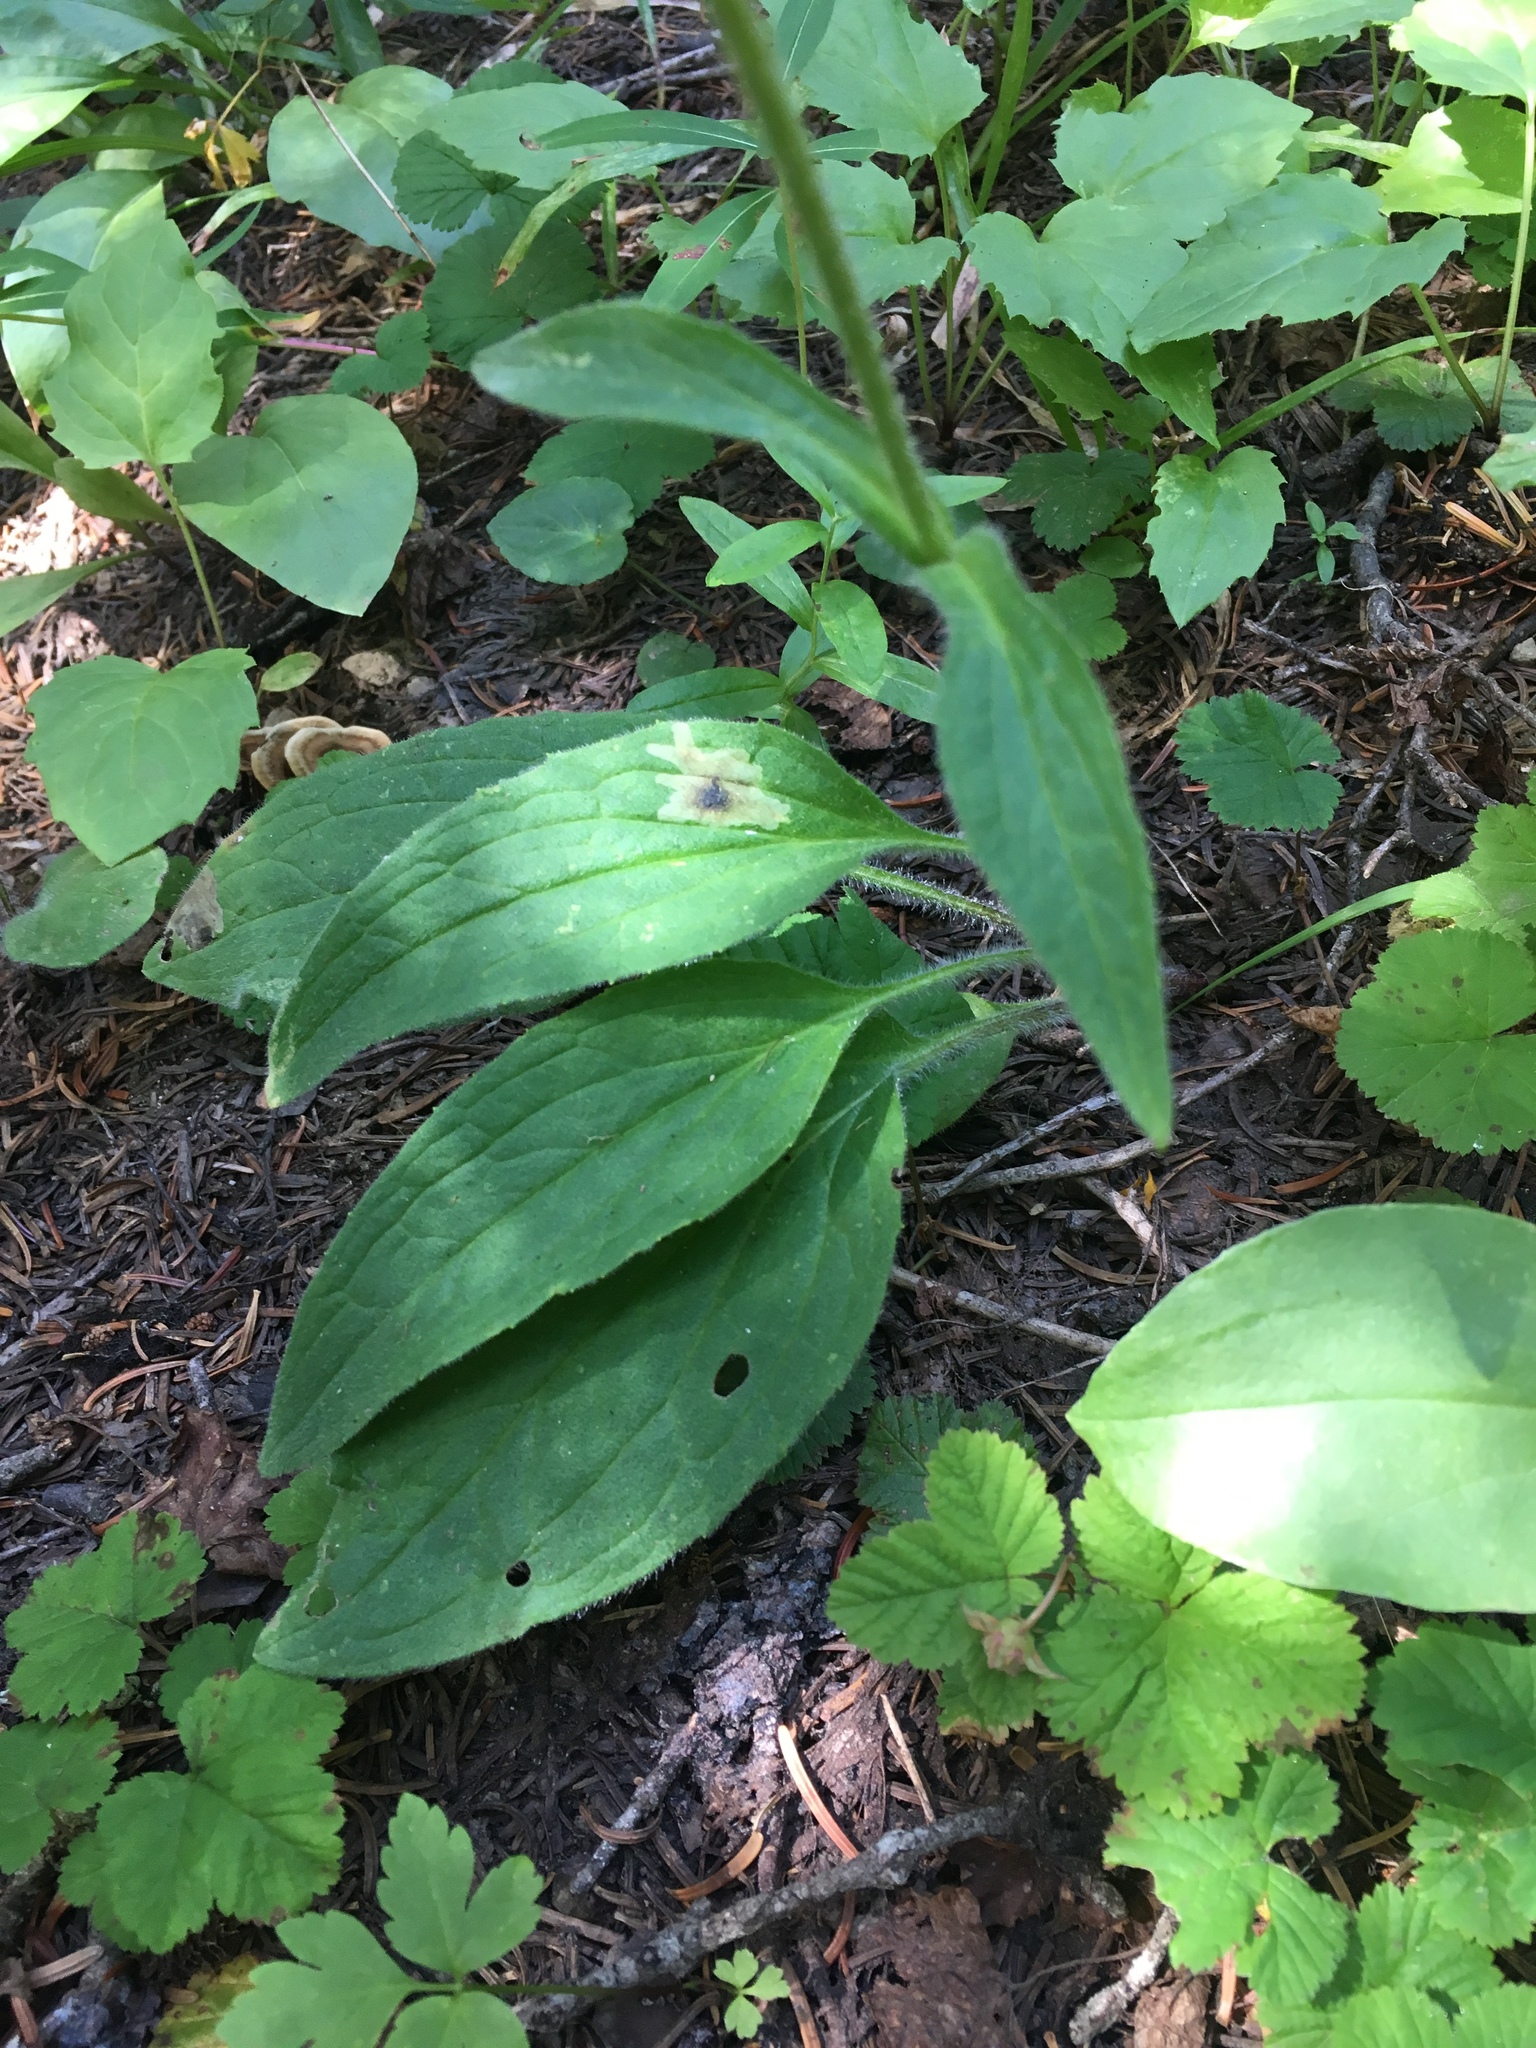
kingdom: Plantae
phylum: Tracheophyta
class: Magnoliopsida
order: Asterales
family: Asteraceae
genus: Arnica
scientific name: Arnica parryi
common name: Parry's arnica
